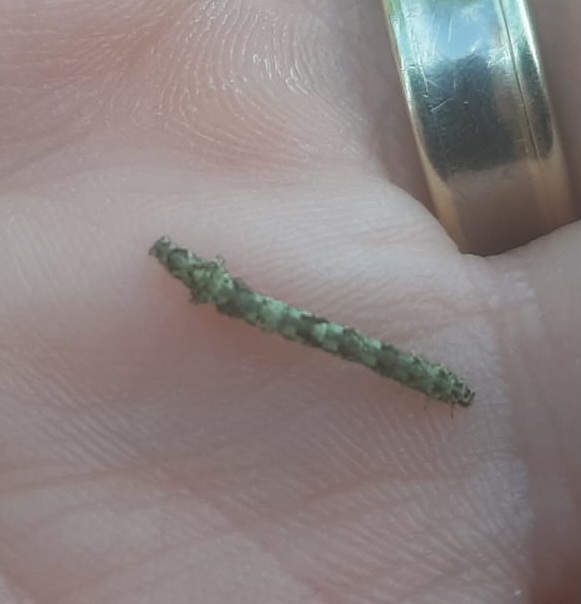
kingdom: Animalia
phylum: Arthropoda
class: Insecta
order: Lepidoptera
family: Erebidae
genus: Laspeyria
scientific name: Laspeyria flexula
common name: Beautiful hook-tip
